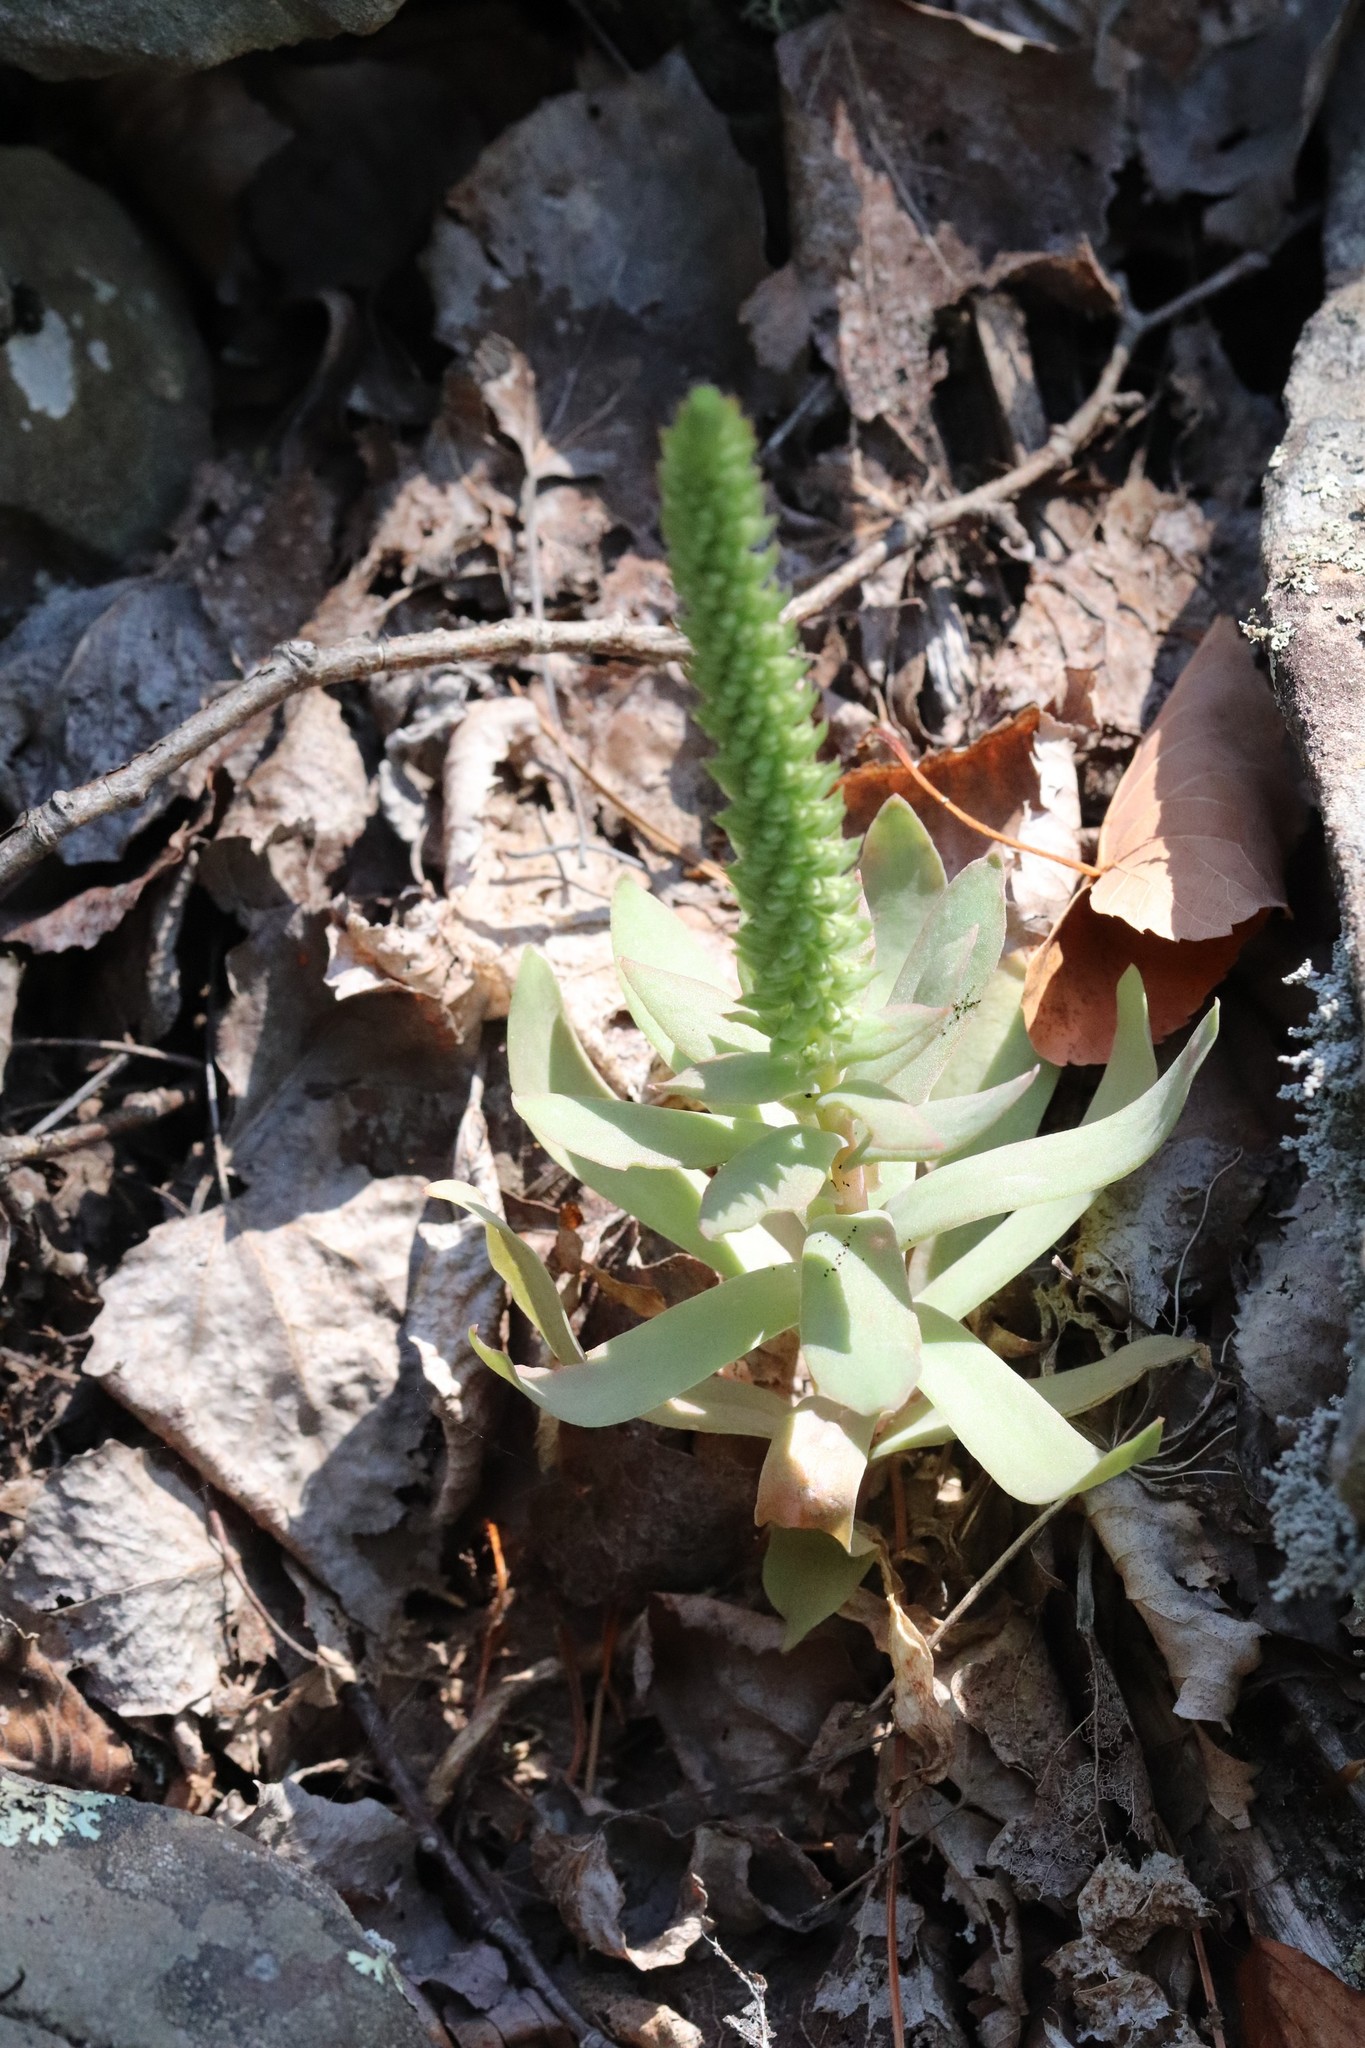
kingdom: Plantae
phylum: Tracheophyta
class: Magnoliopsida
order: Saxifragales
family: Crassulaceae
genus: Orostachys
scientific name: Orostachys malacophylla
